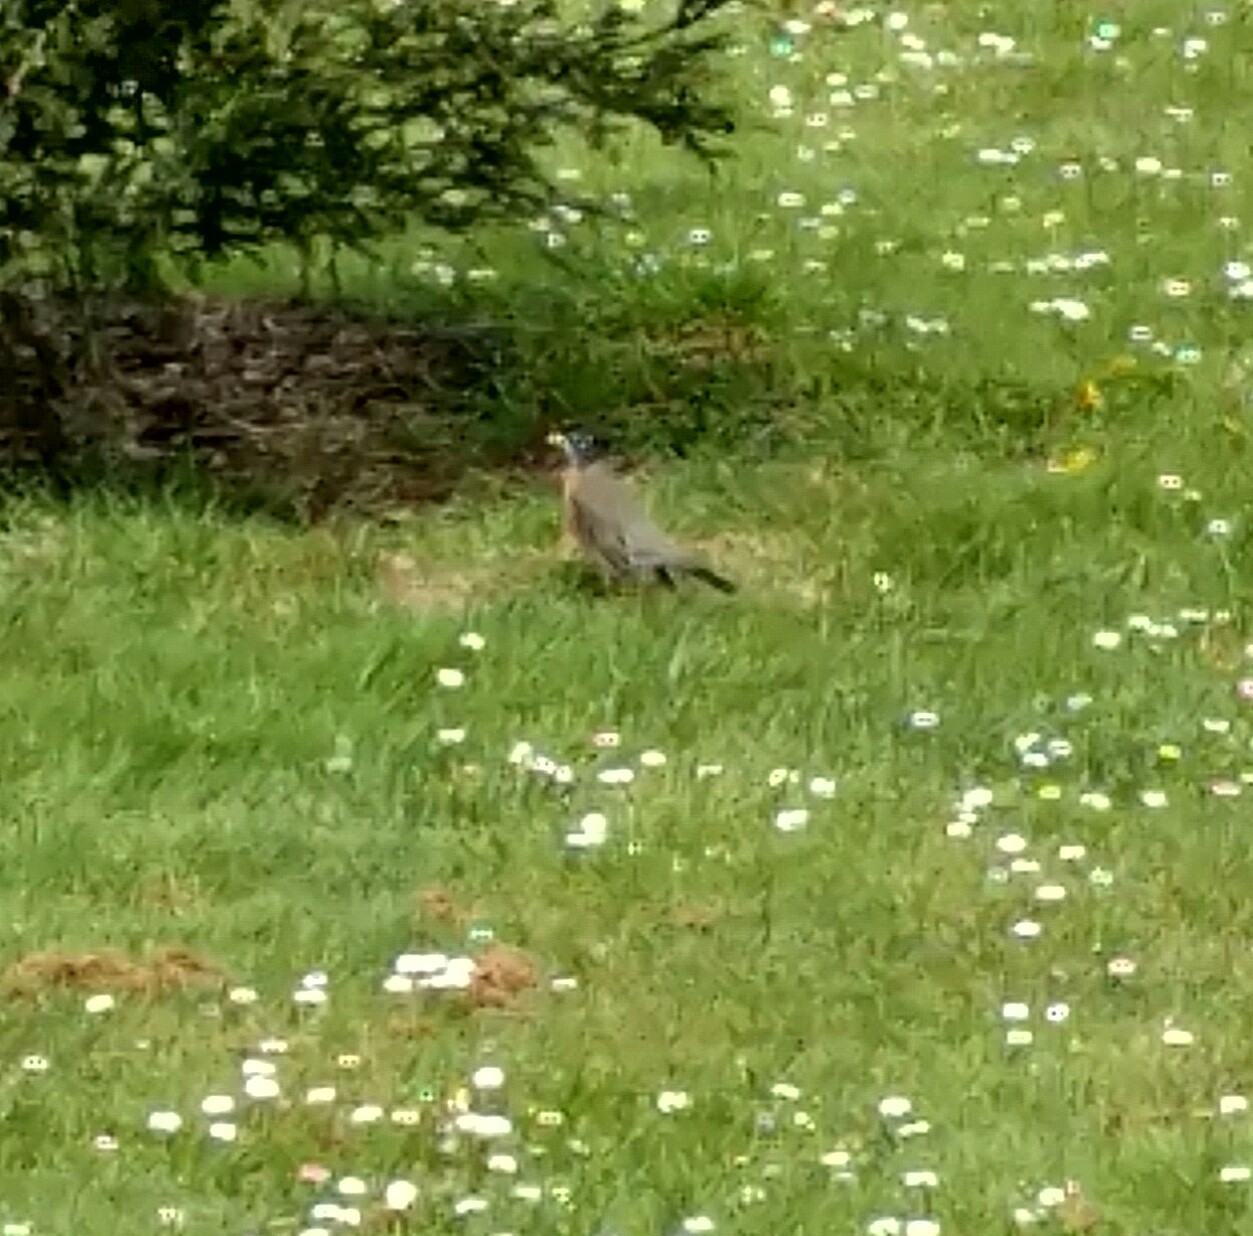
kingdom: Animalia
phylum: Chordata
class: Aves
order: Passeriformes
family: Turdidae
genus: Turdus
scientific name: Turdus migratorius
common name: American robin
